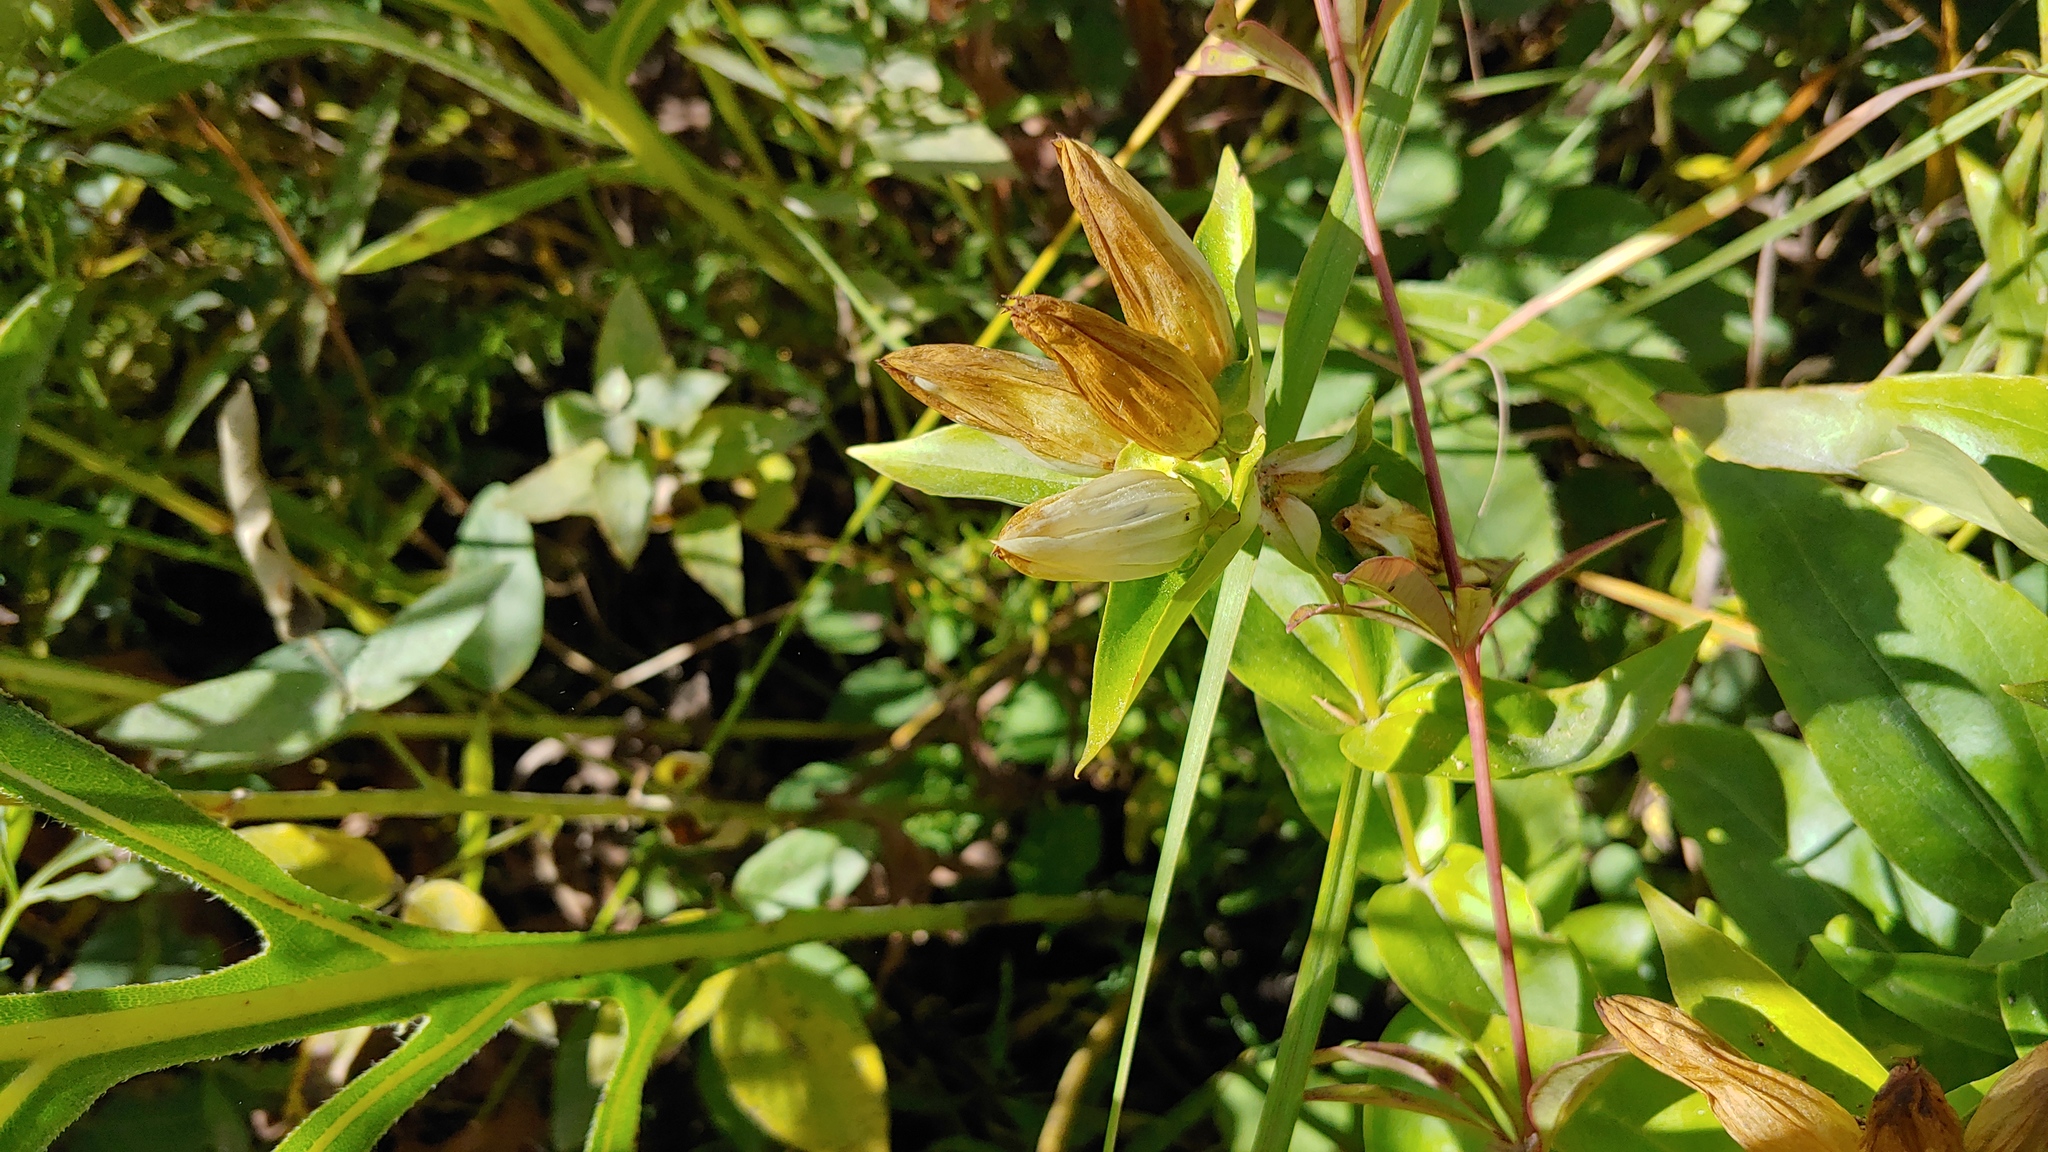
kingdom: Plantae
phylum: Tracheophyta
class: Magnoliopsida
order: Gentianales
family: Gentianaceae
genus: Gentiana
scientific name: Gentiana alba
